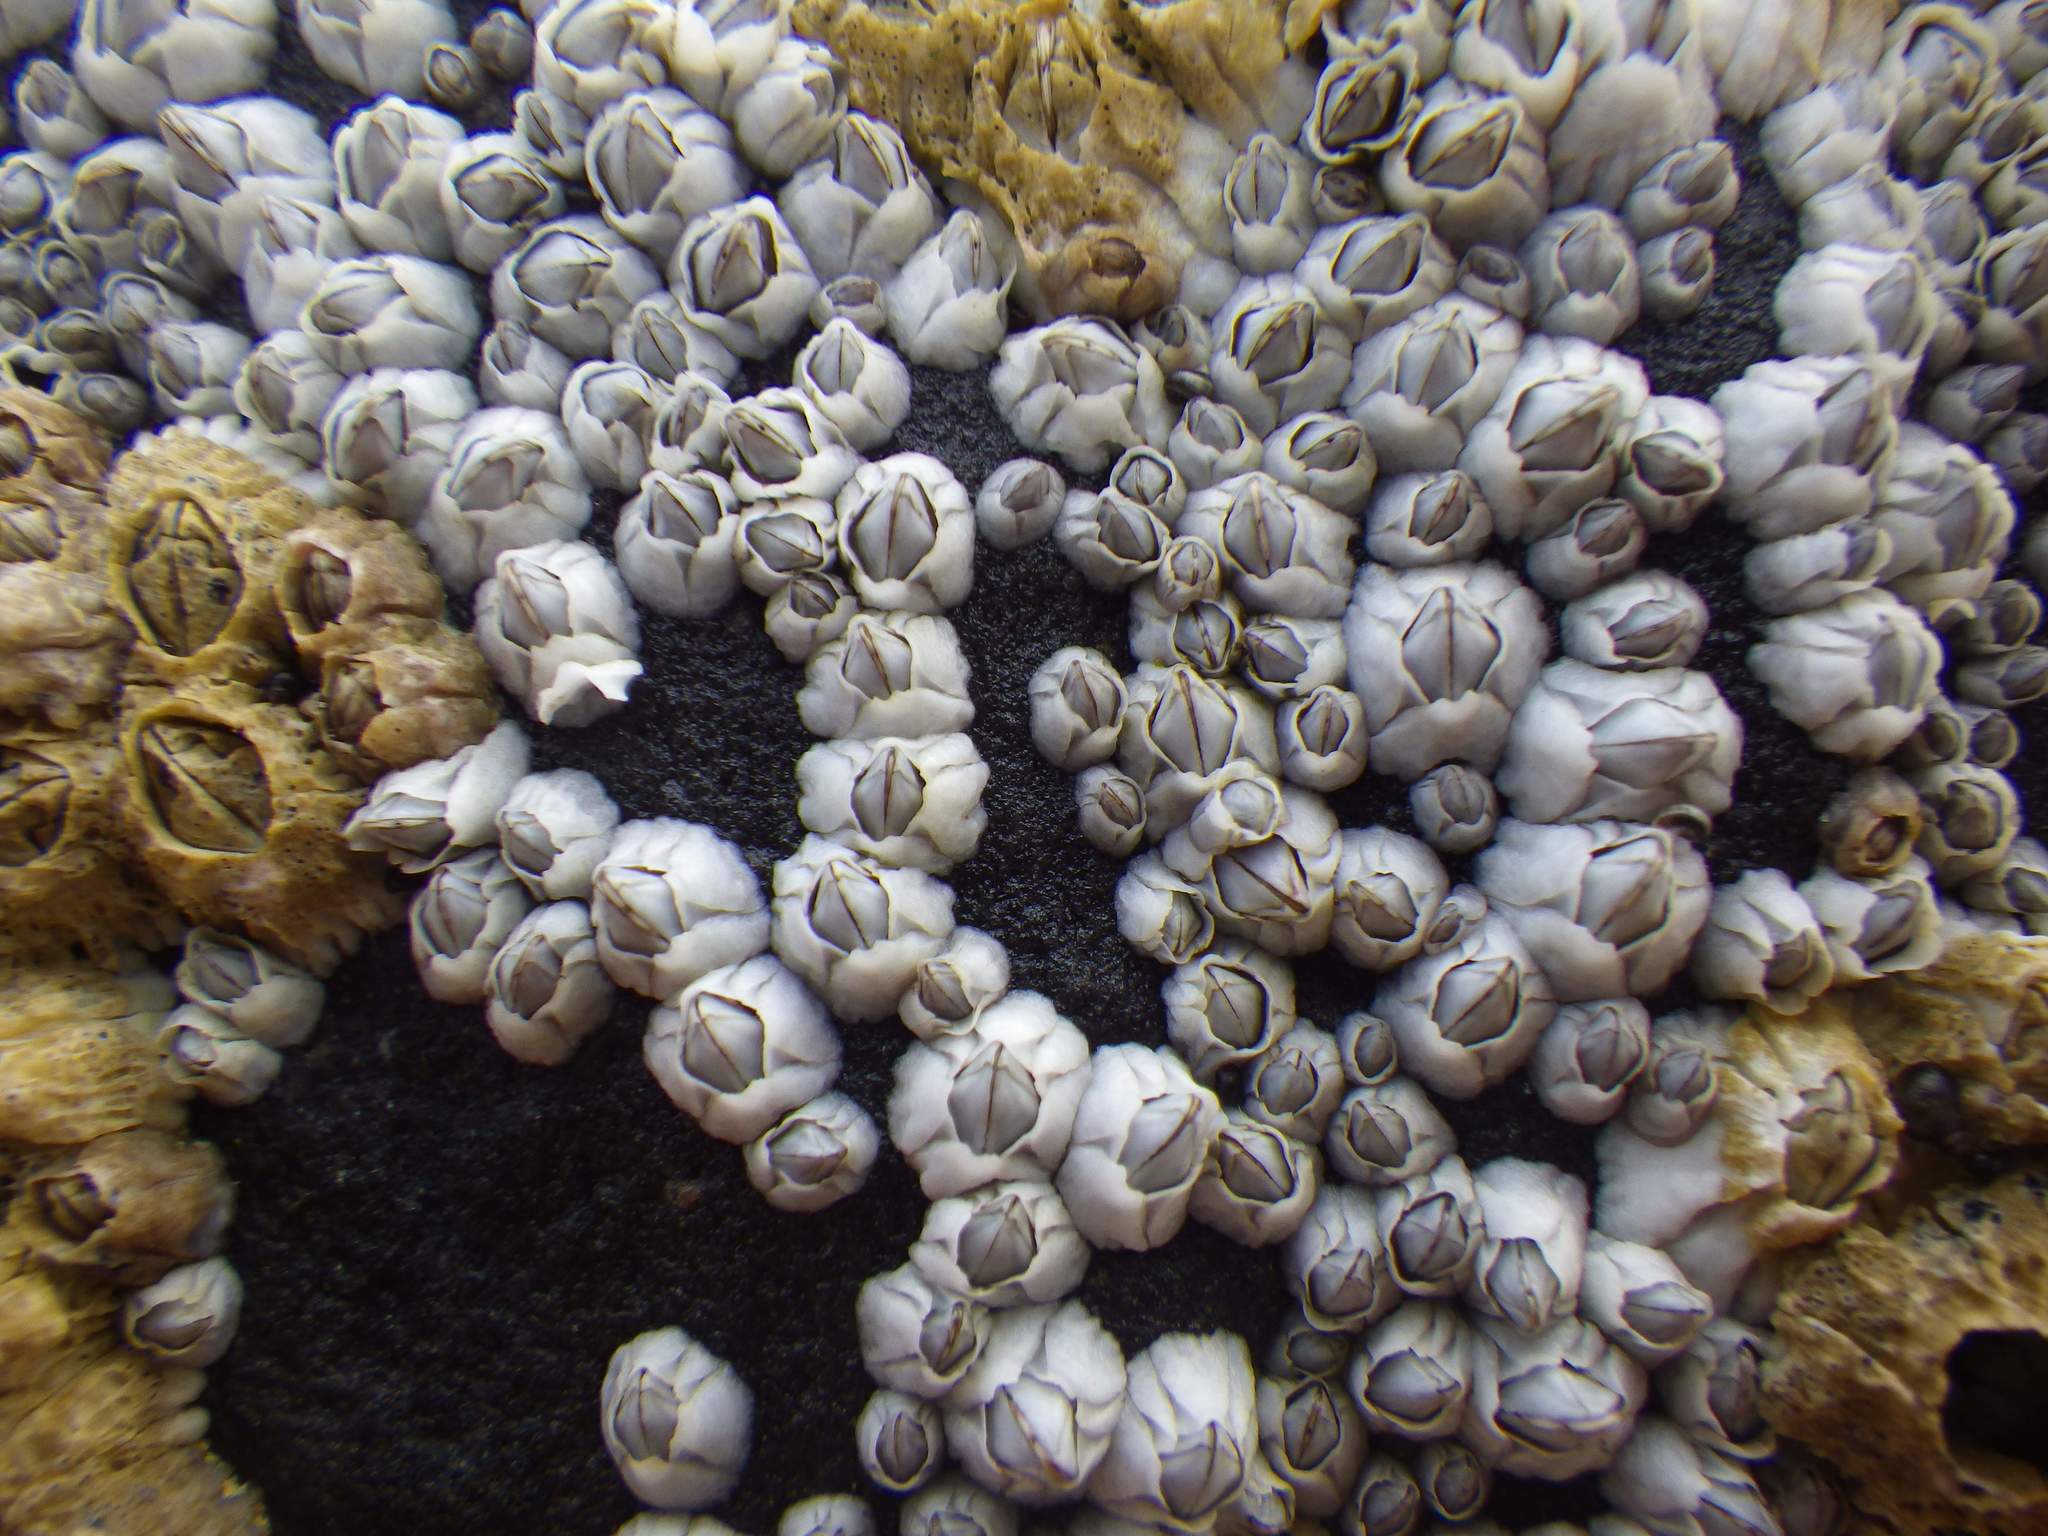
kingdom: Animalia
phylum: Arthropoda
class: Maxillopoda
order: Sessilia
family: Archaeobalanidae
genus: Semibalanus
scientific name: Semibalanus balanoides
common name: Acorn barnacle
